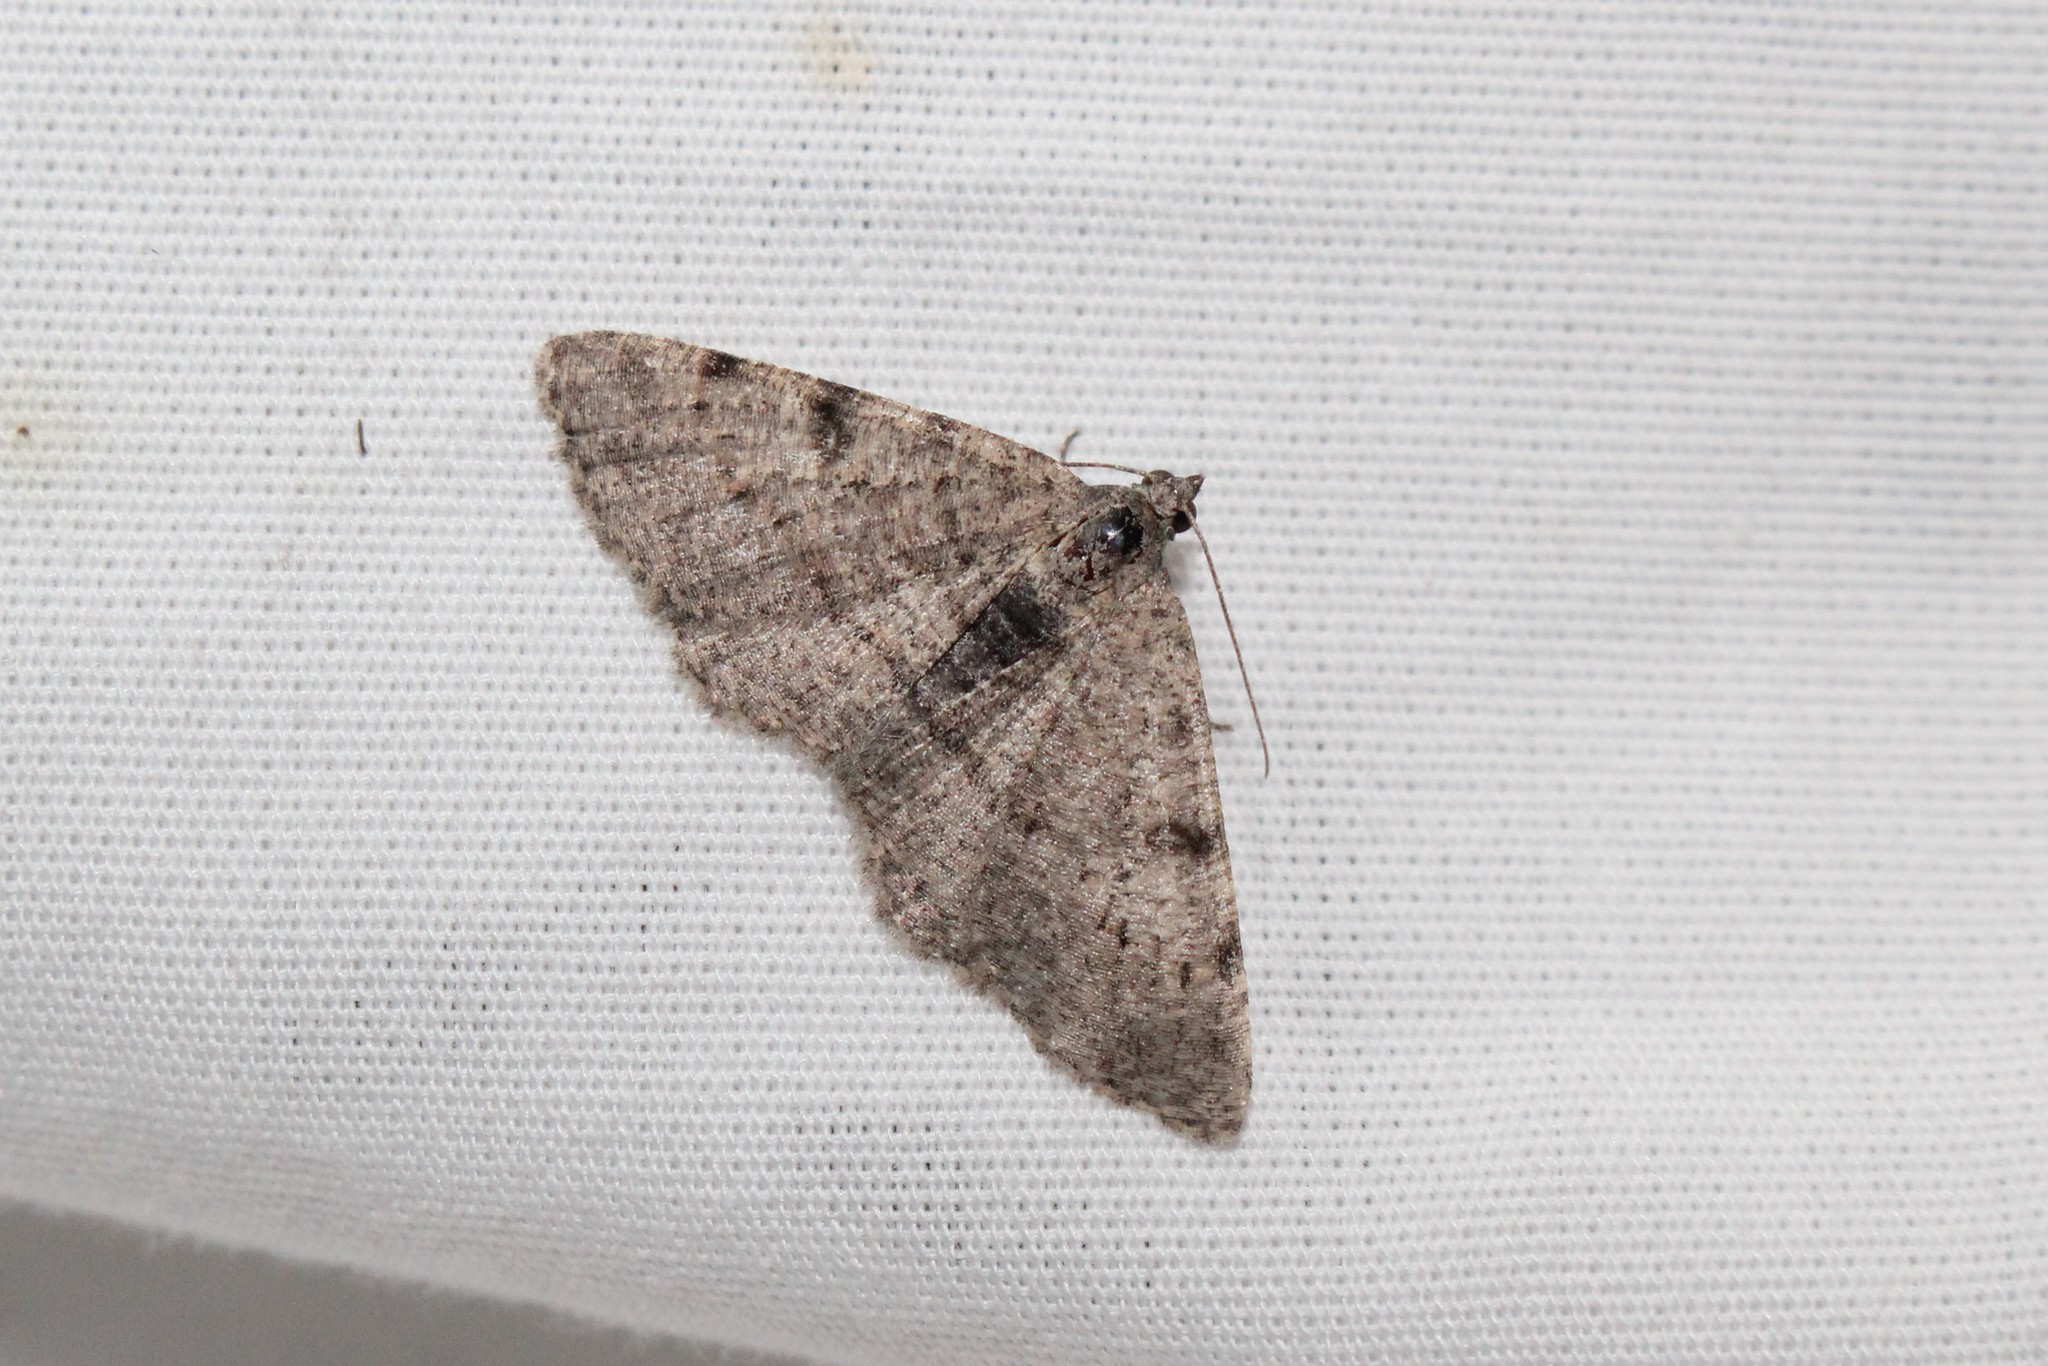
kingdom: Animalia
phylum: Arthropoda
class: Insecta
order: Lepidoptera
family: Geometridae
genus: Digrammia
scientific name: Digrammia gnophosaria
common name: Hollow-spotted angle
